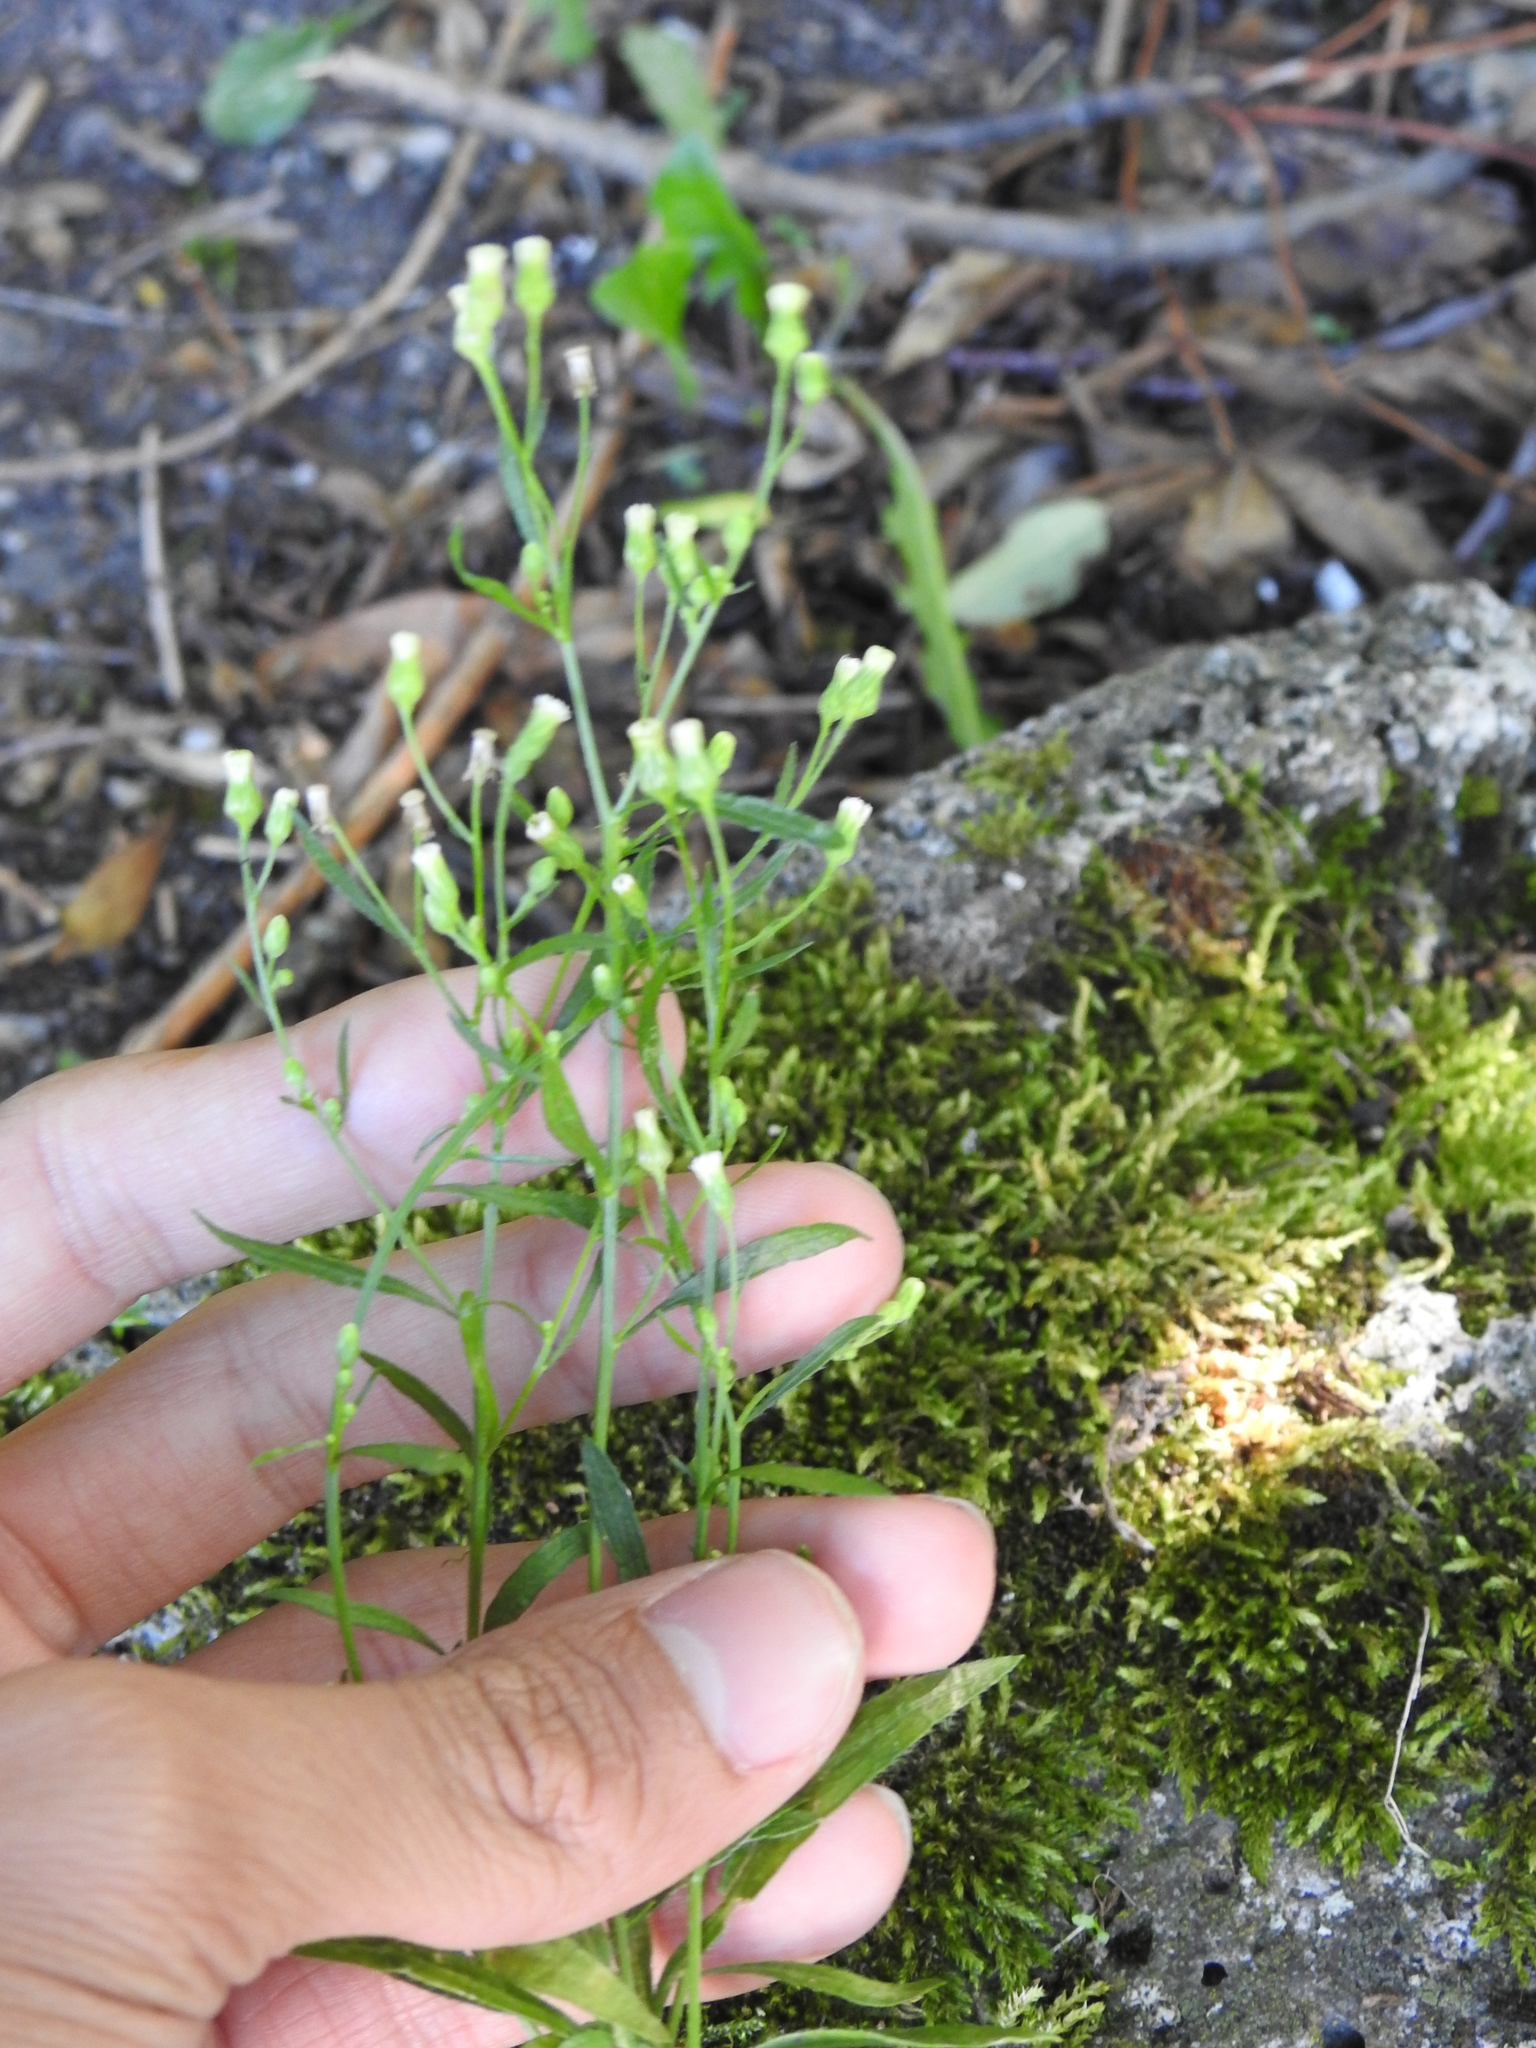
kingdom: Plantae
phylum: Tracheophyta
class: Magnoliopsida
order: Asterales
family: Asteraceae
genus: Erigeron
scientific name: Erigeron canadensis
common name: Canadian fleabane
